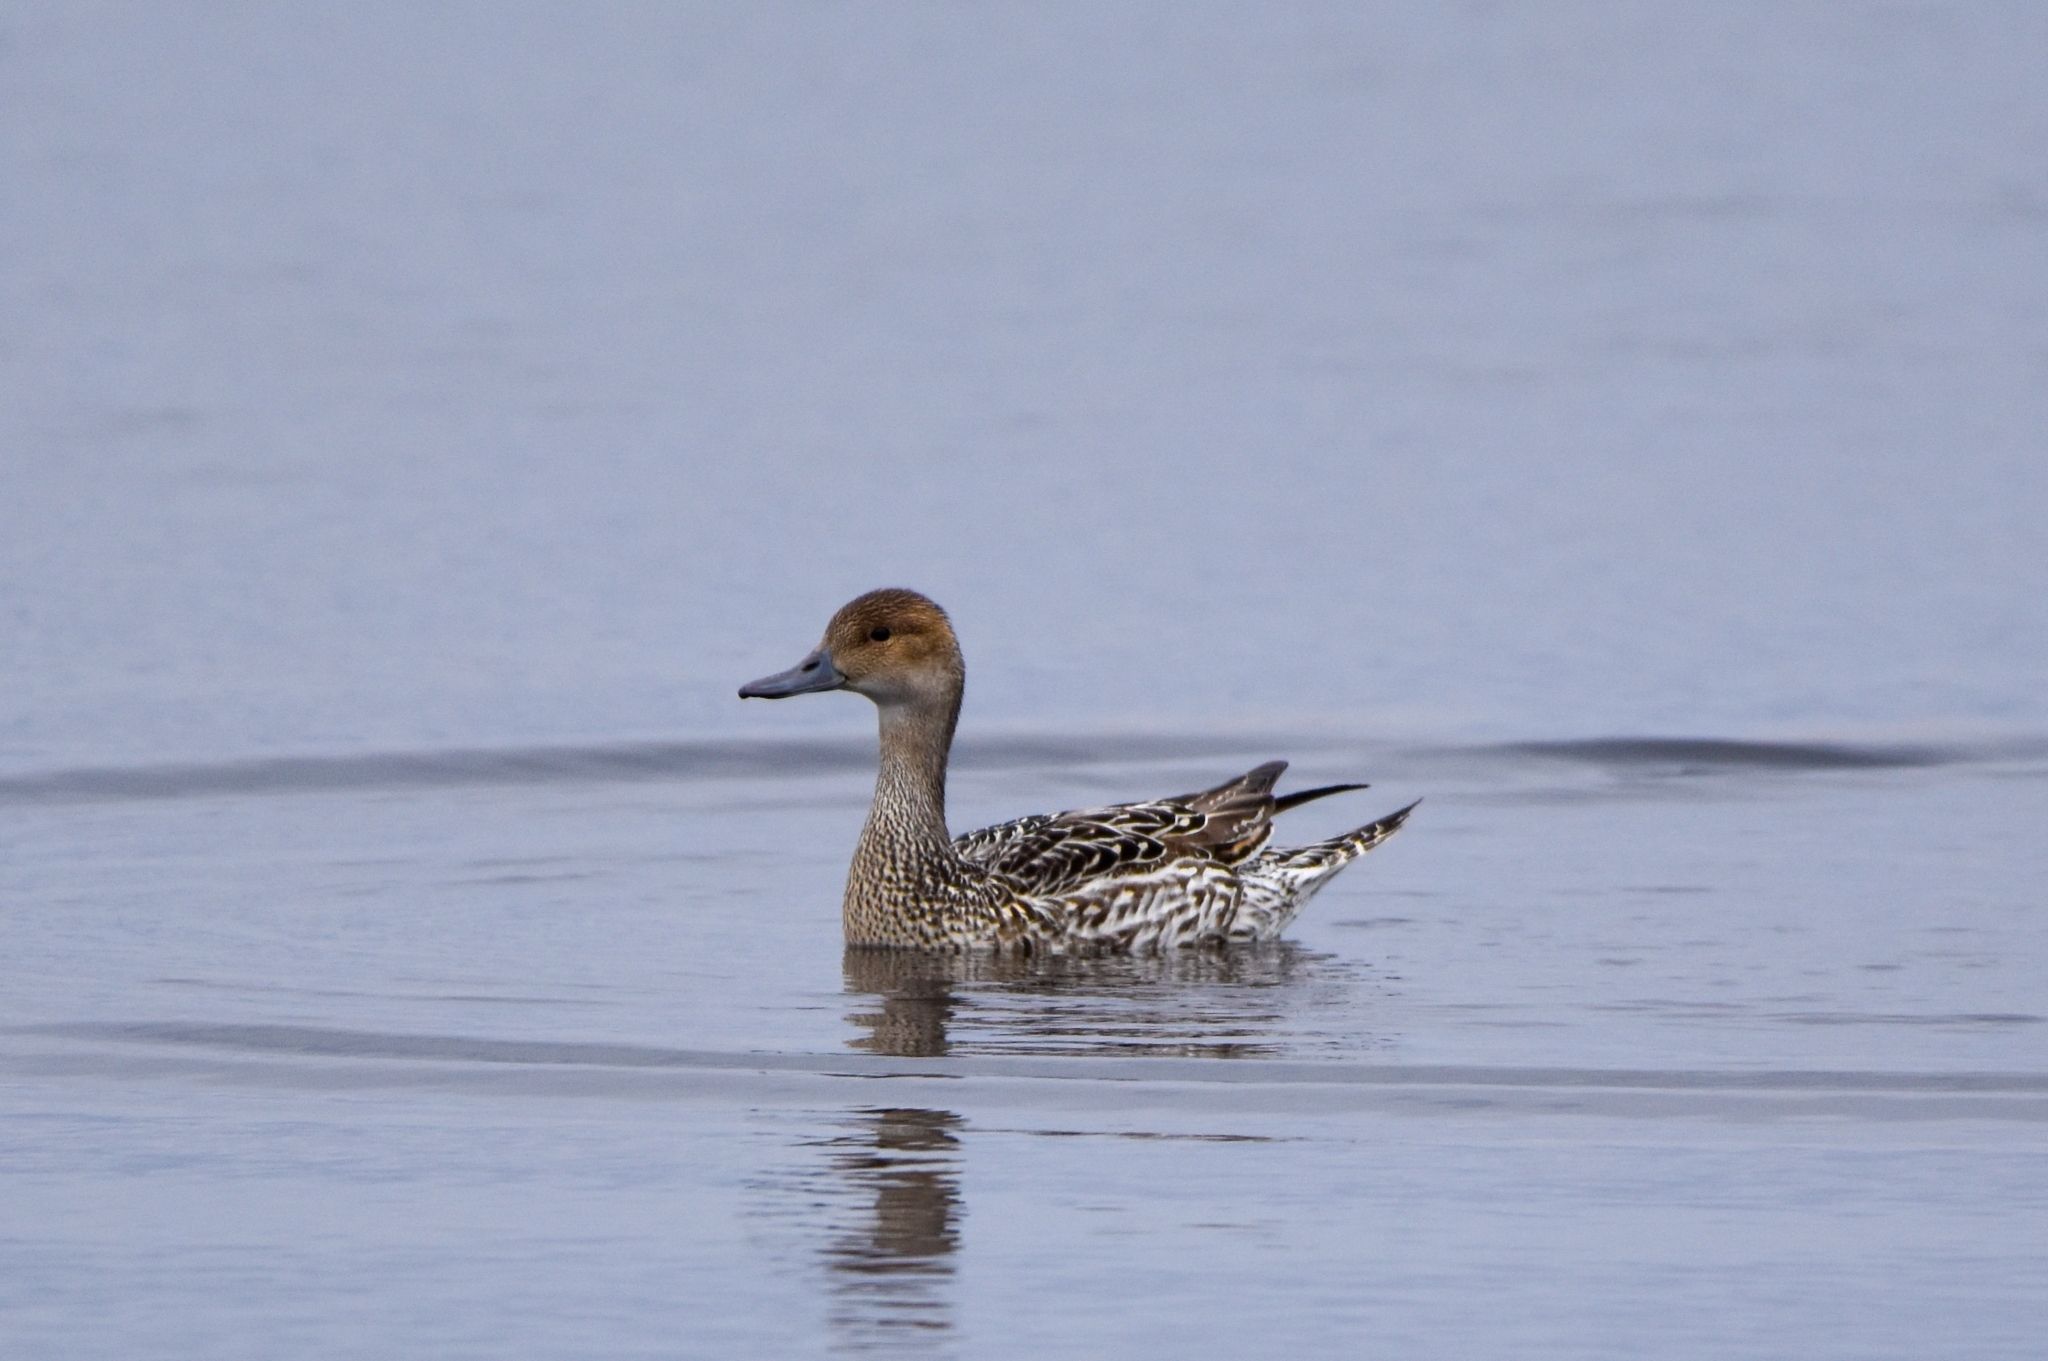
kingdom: Animalia
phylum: Chordata
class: Aves
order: Anseriformes
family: Anatidae
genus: Anas
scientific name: Anas acuta
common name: Northern pintail
